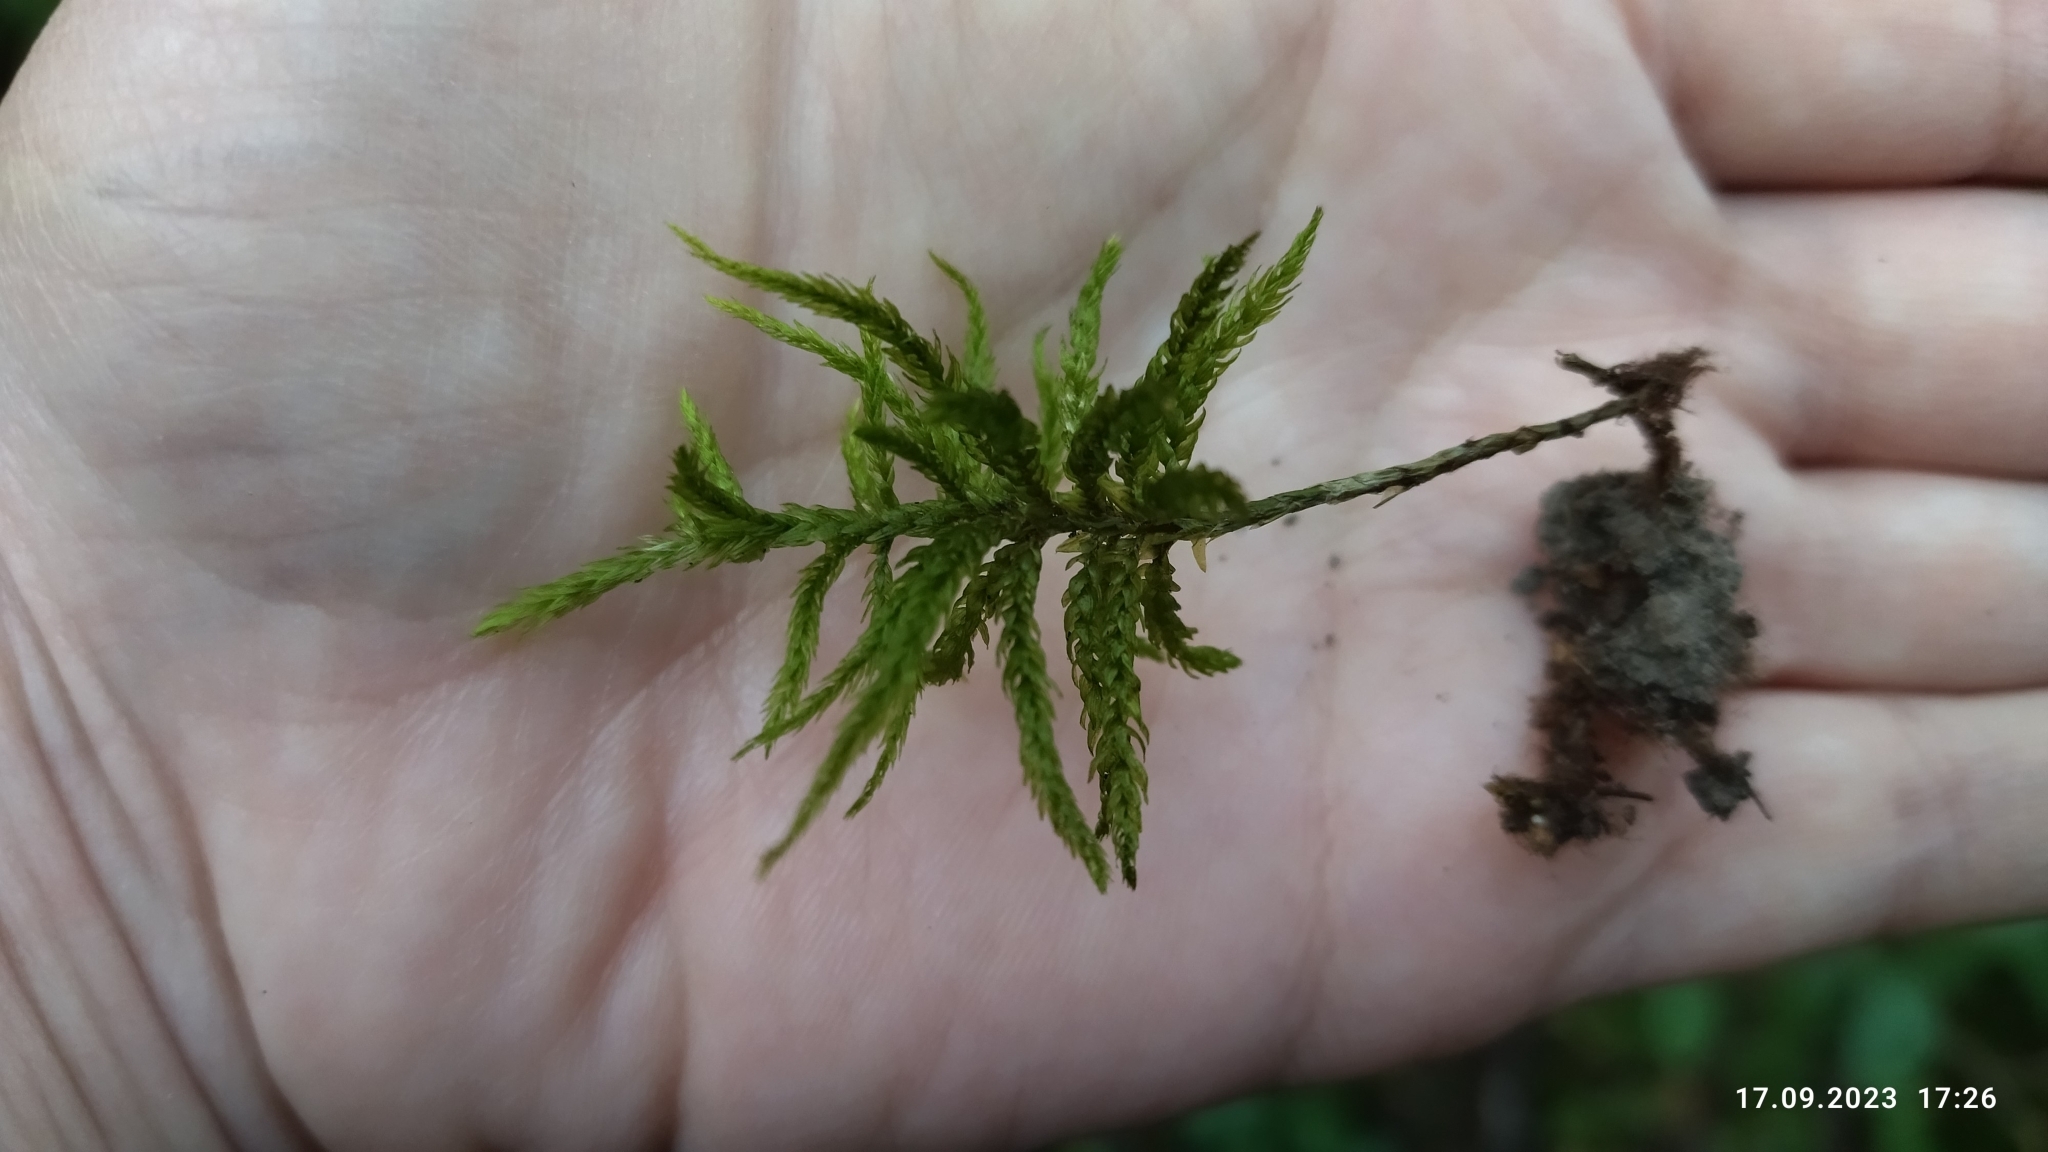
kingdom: Plantae
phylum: Bryophyta
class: Bryopsida
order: Hypnales
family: Climaciaceae
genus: Climacium
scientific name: Climacium dendroides
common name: Northern tree moss
